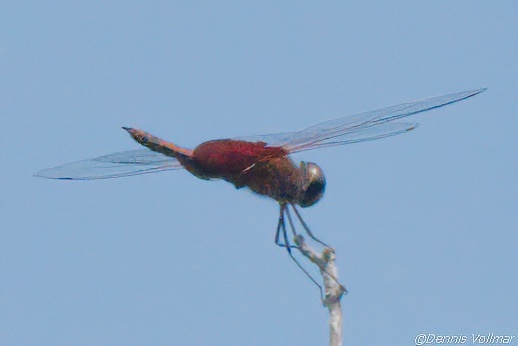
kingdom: Animalia
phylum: Arthropoda
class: Insecta
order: Odonata
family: Libellulidae
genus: Tramea
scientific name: Tramea carolina
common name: Carolina saddlebags
